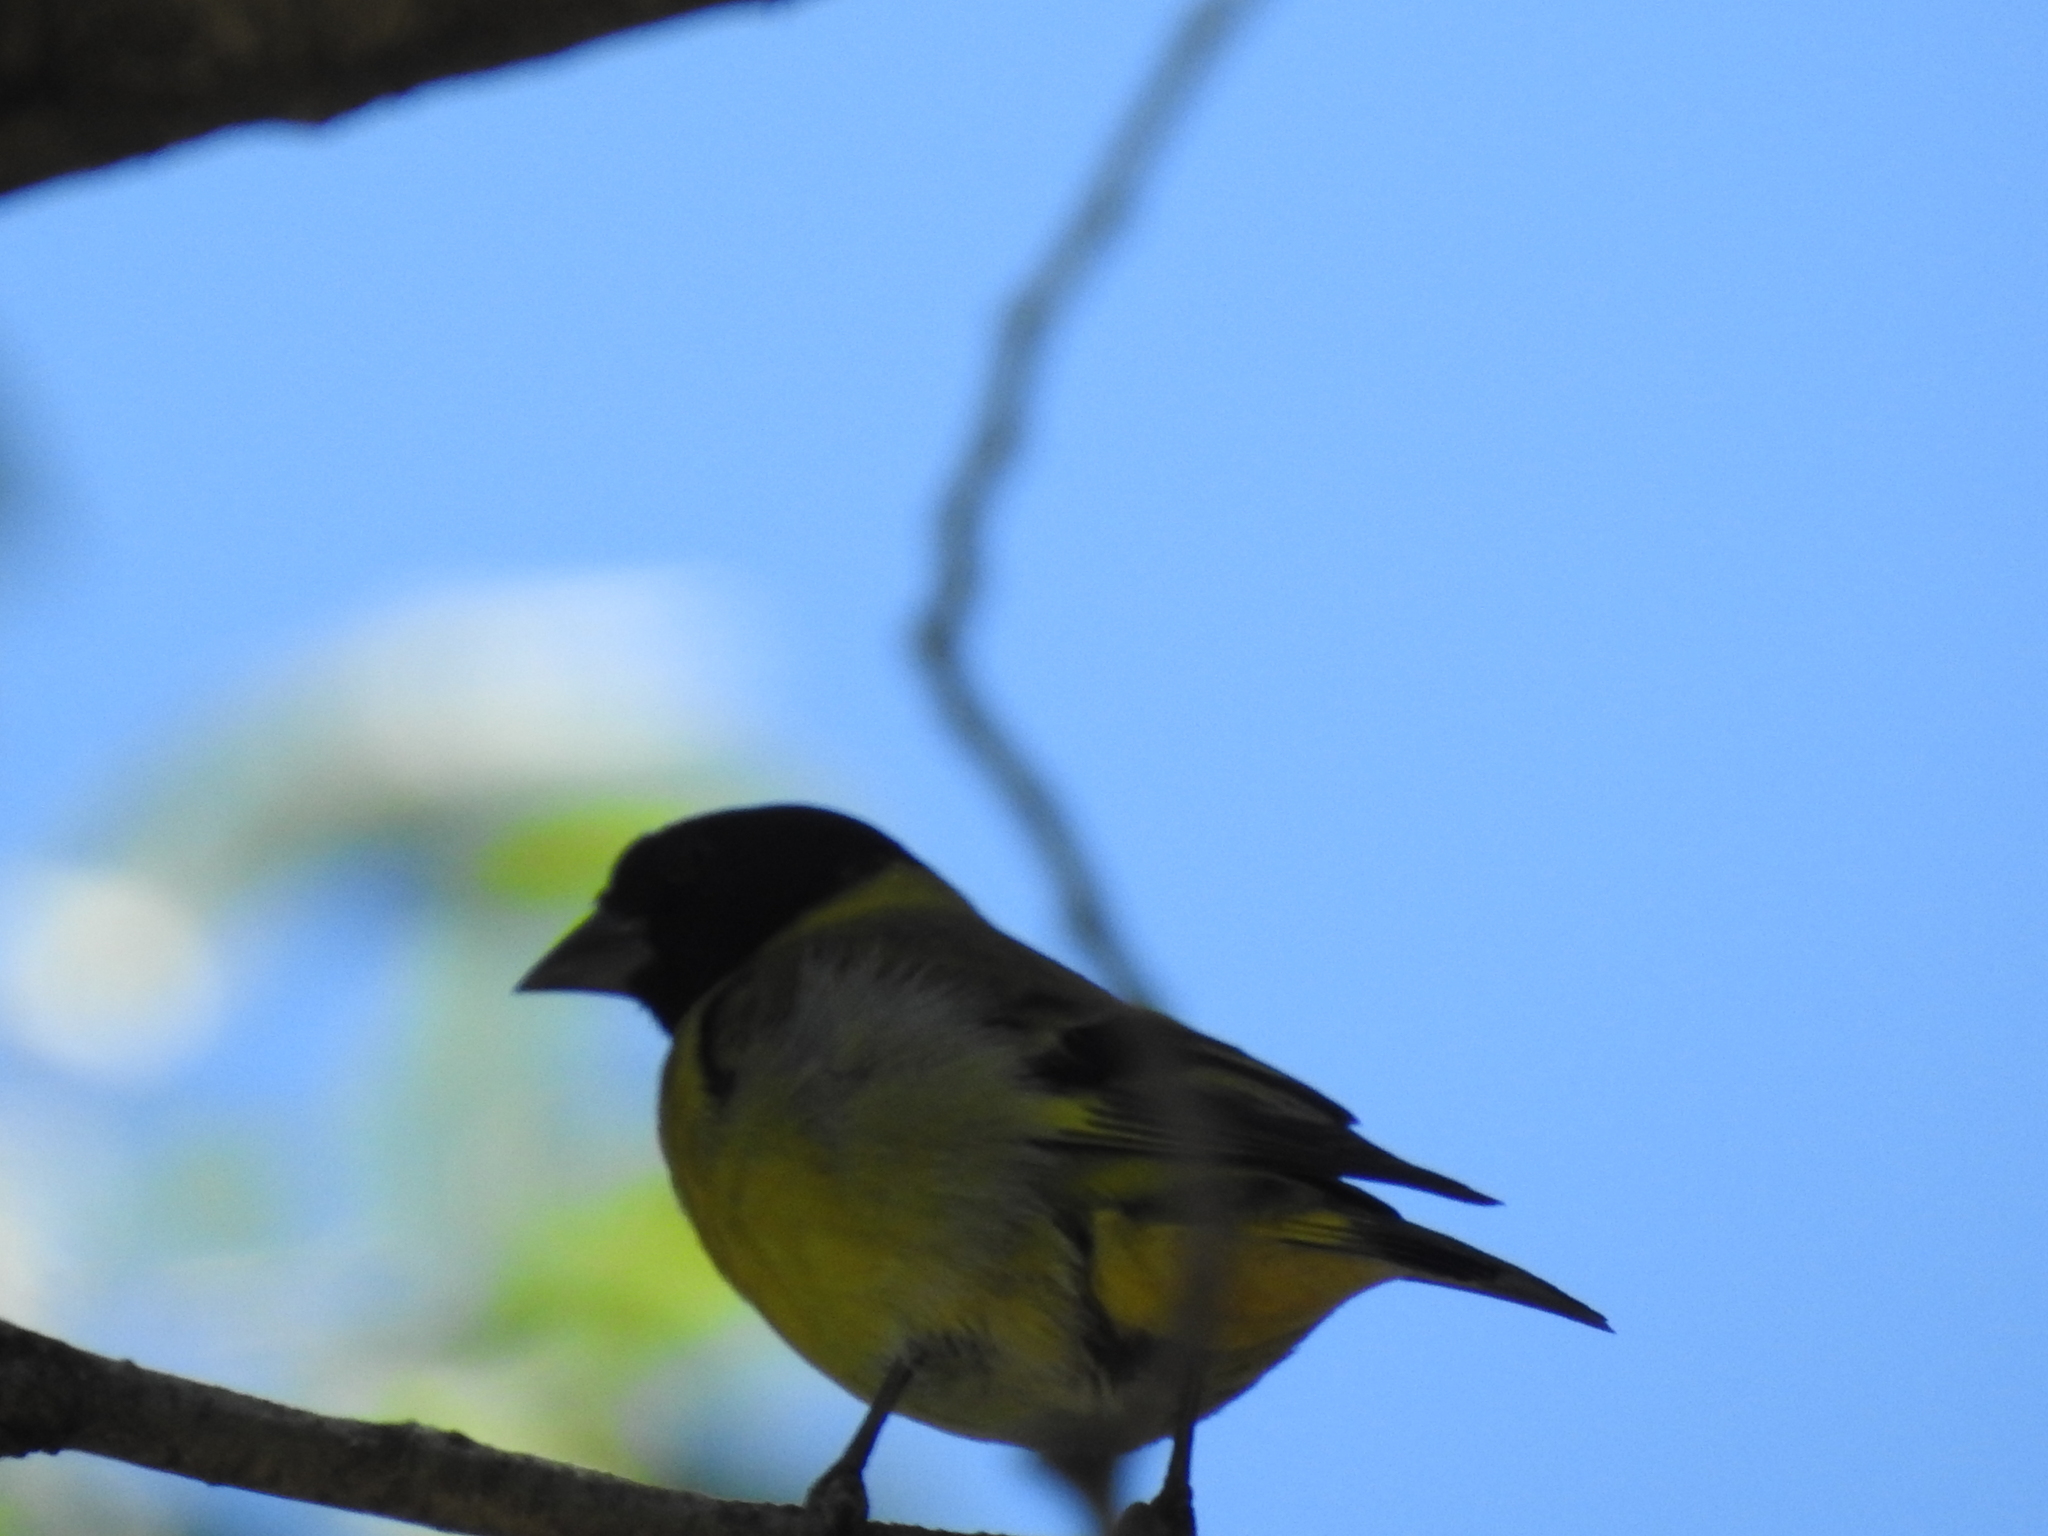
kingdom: Animalia
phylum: Chordata
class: Aves
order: Passeriformes
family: Fringillidae
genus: Spinus
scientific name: Spinus magellanicus
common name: Hooded siskin
